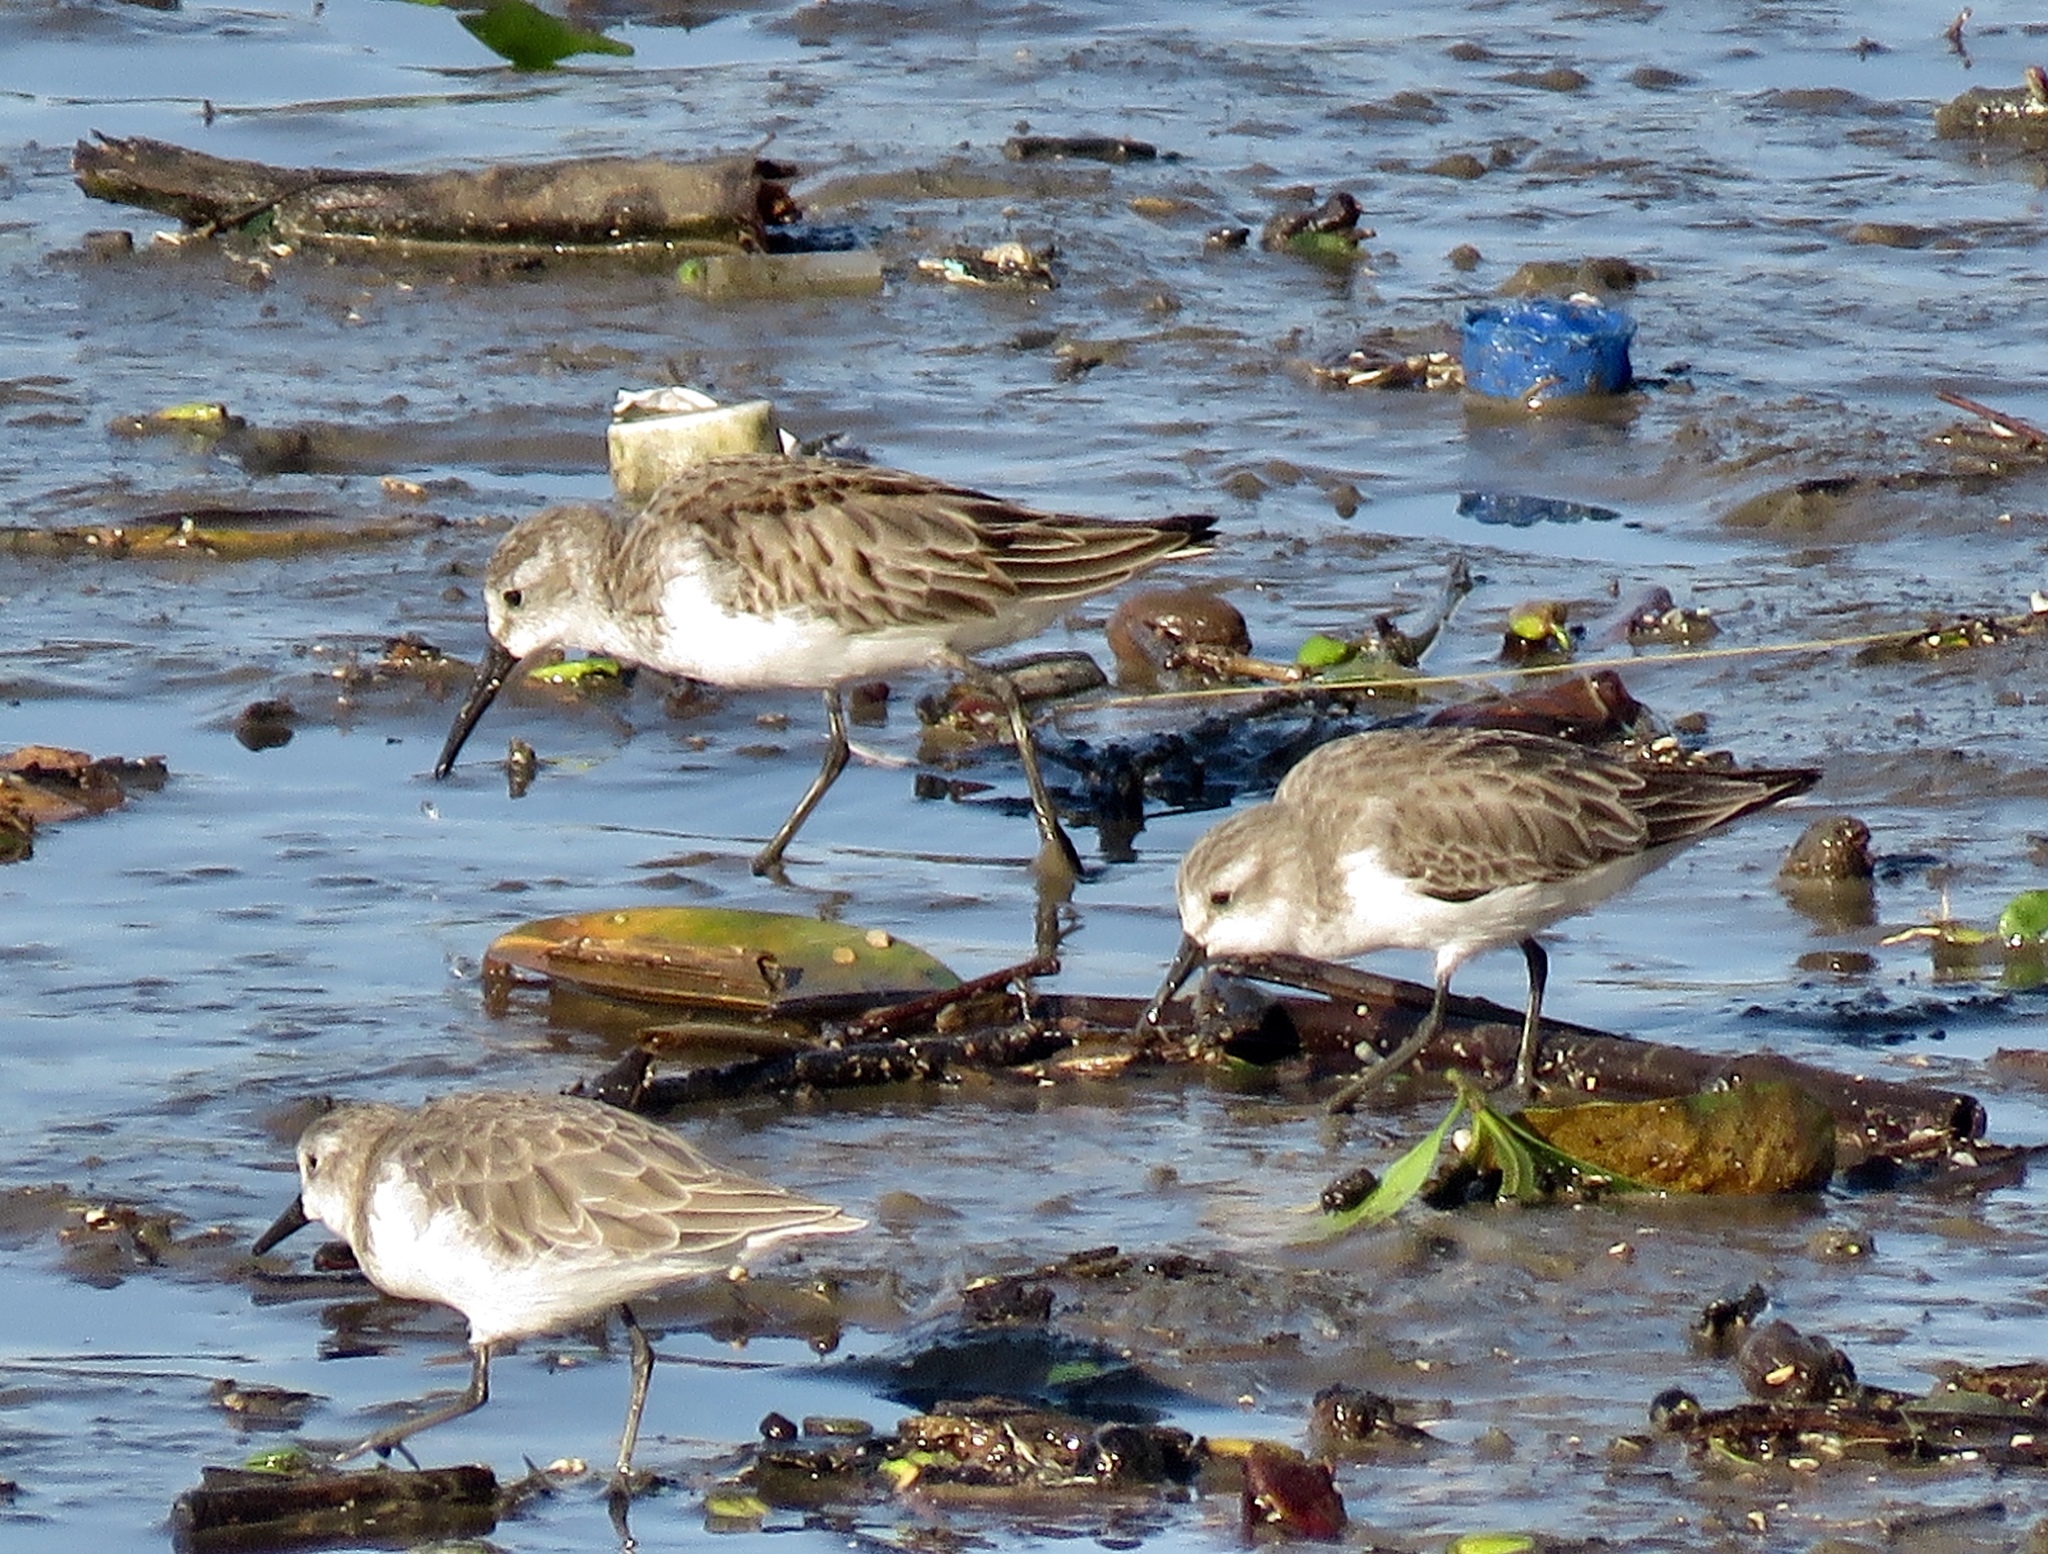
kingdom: Animalia
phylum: Chordata
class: Aves
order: Charadriiformes
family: Scolopacidae
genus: Calidris
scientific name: Calidris mauri
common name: Western sandpiper
